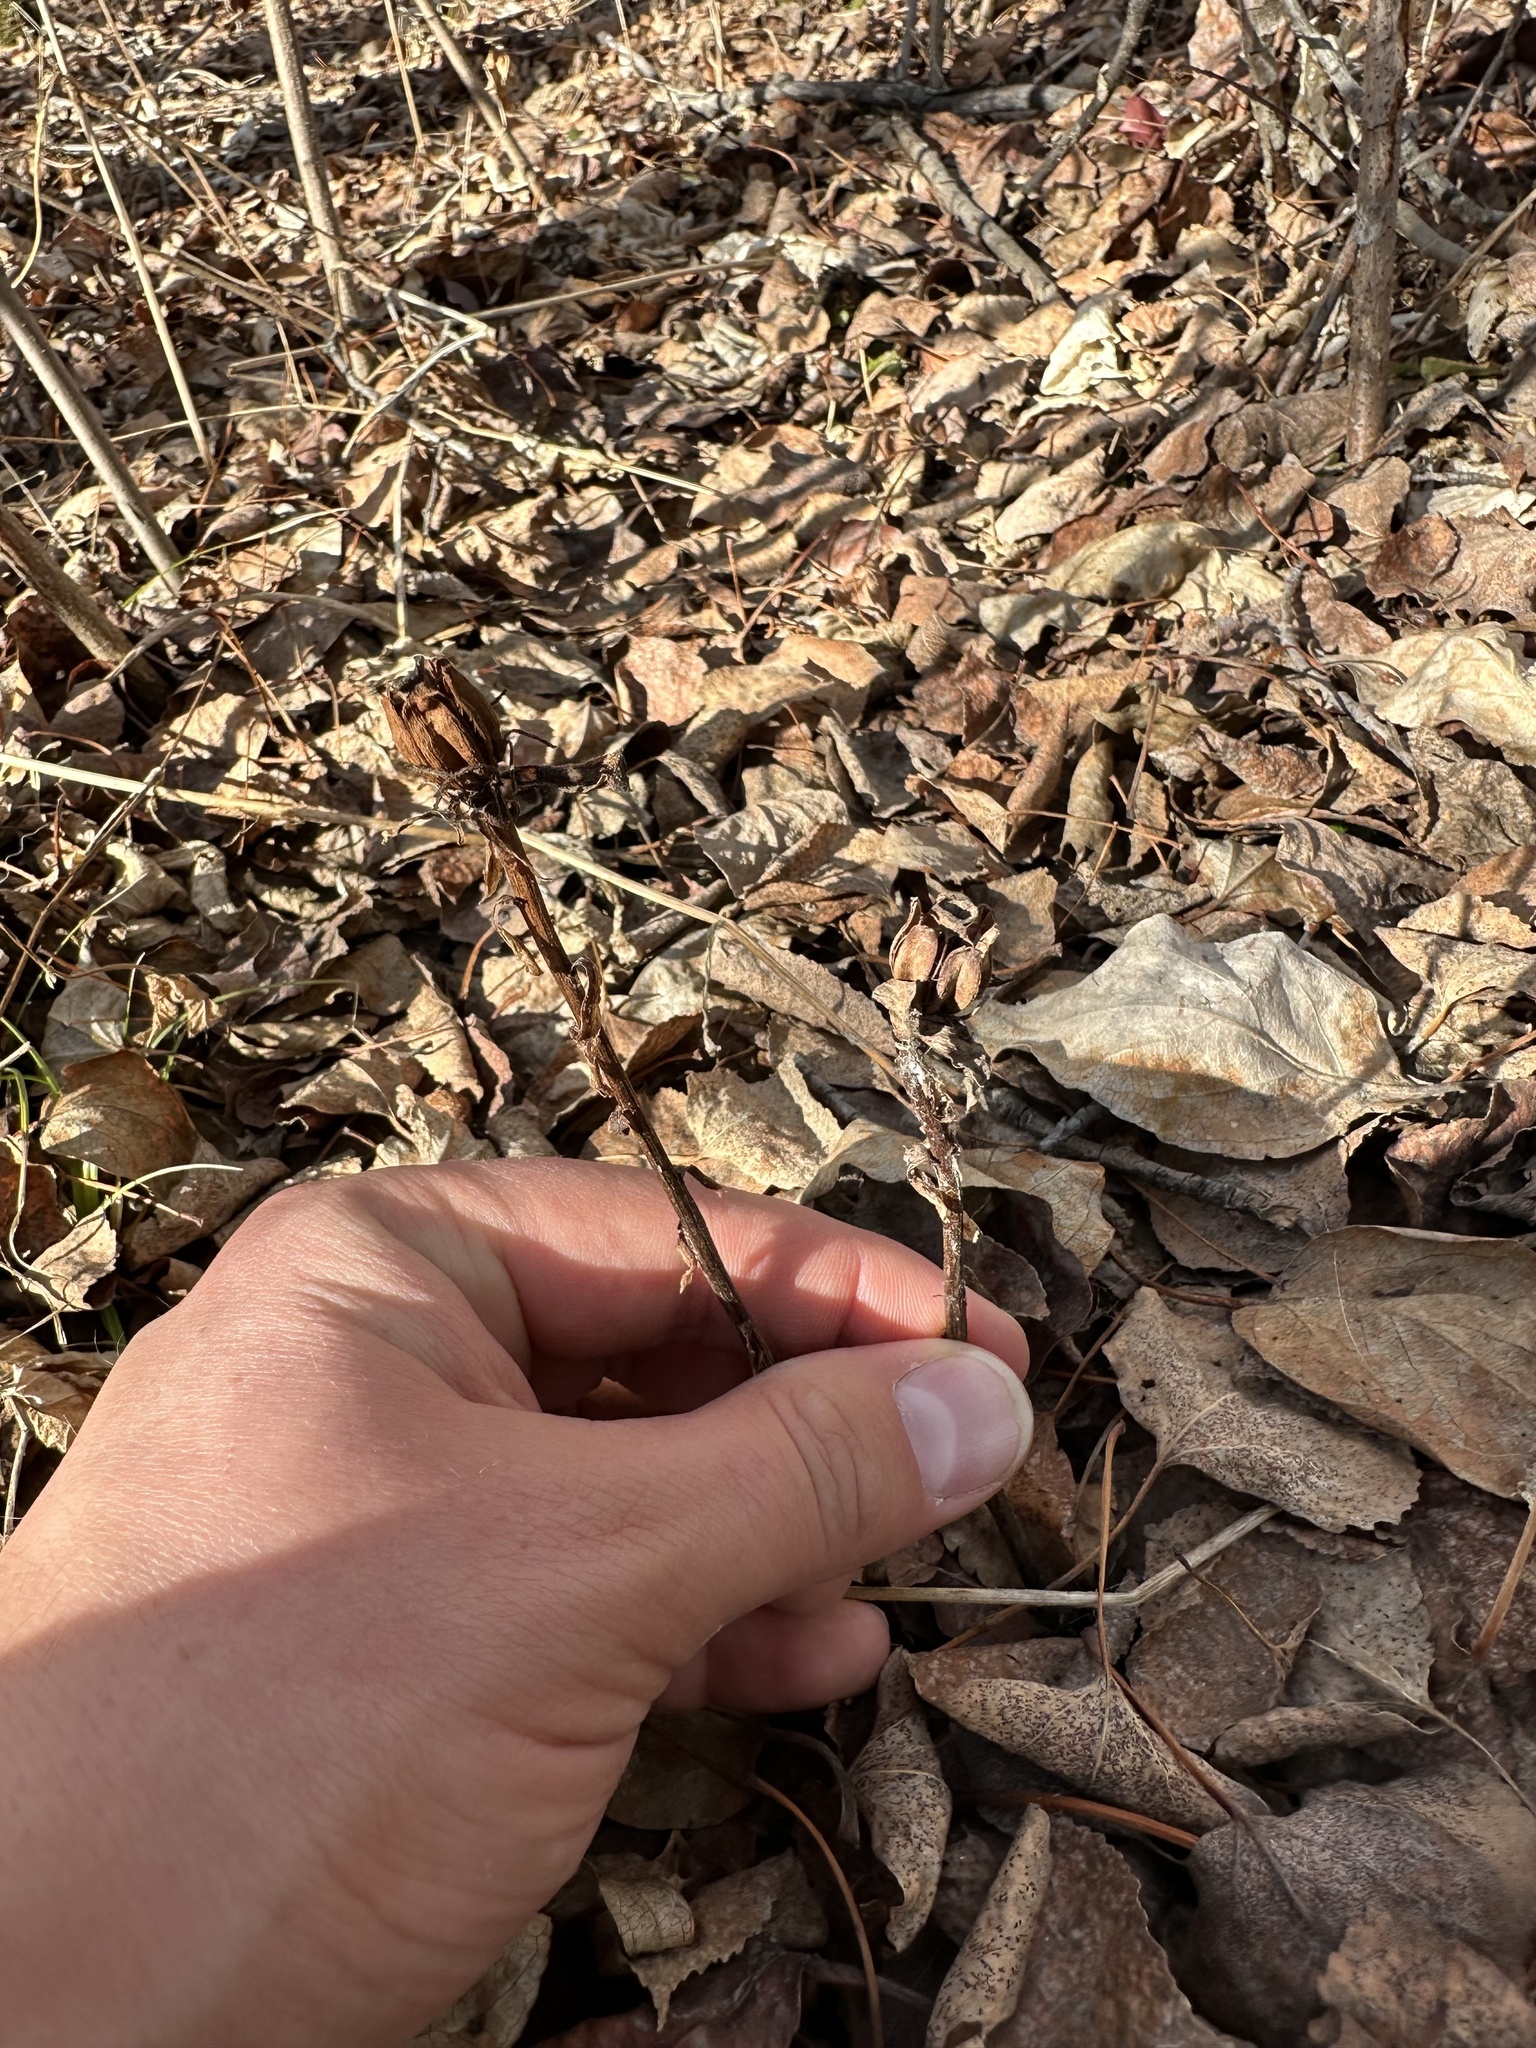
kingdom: Plantae
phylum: Tracheophyta
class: Magnoliopsida
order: Ericales
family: Ericaceae
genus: Monotropa
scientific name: Monotropa uniflora
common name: Convulsion root
